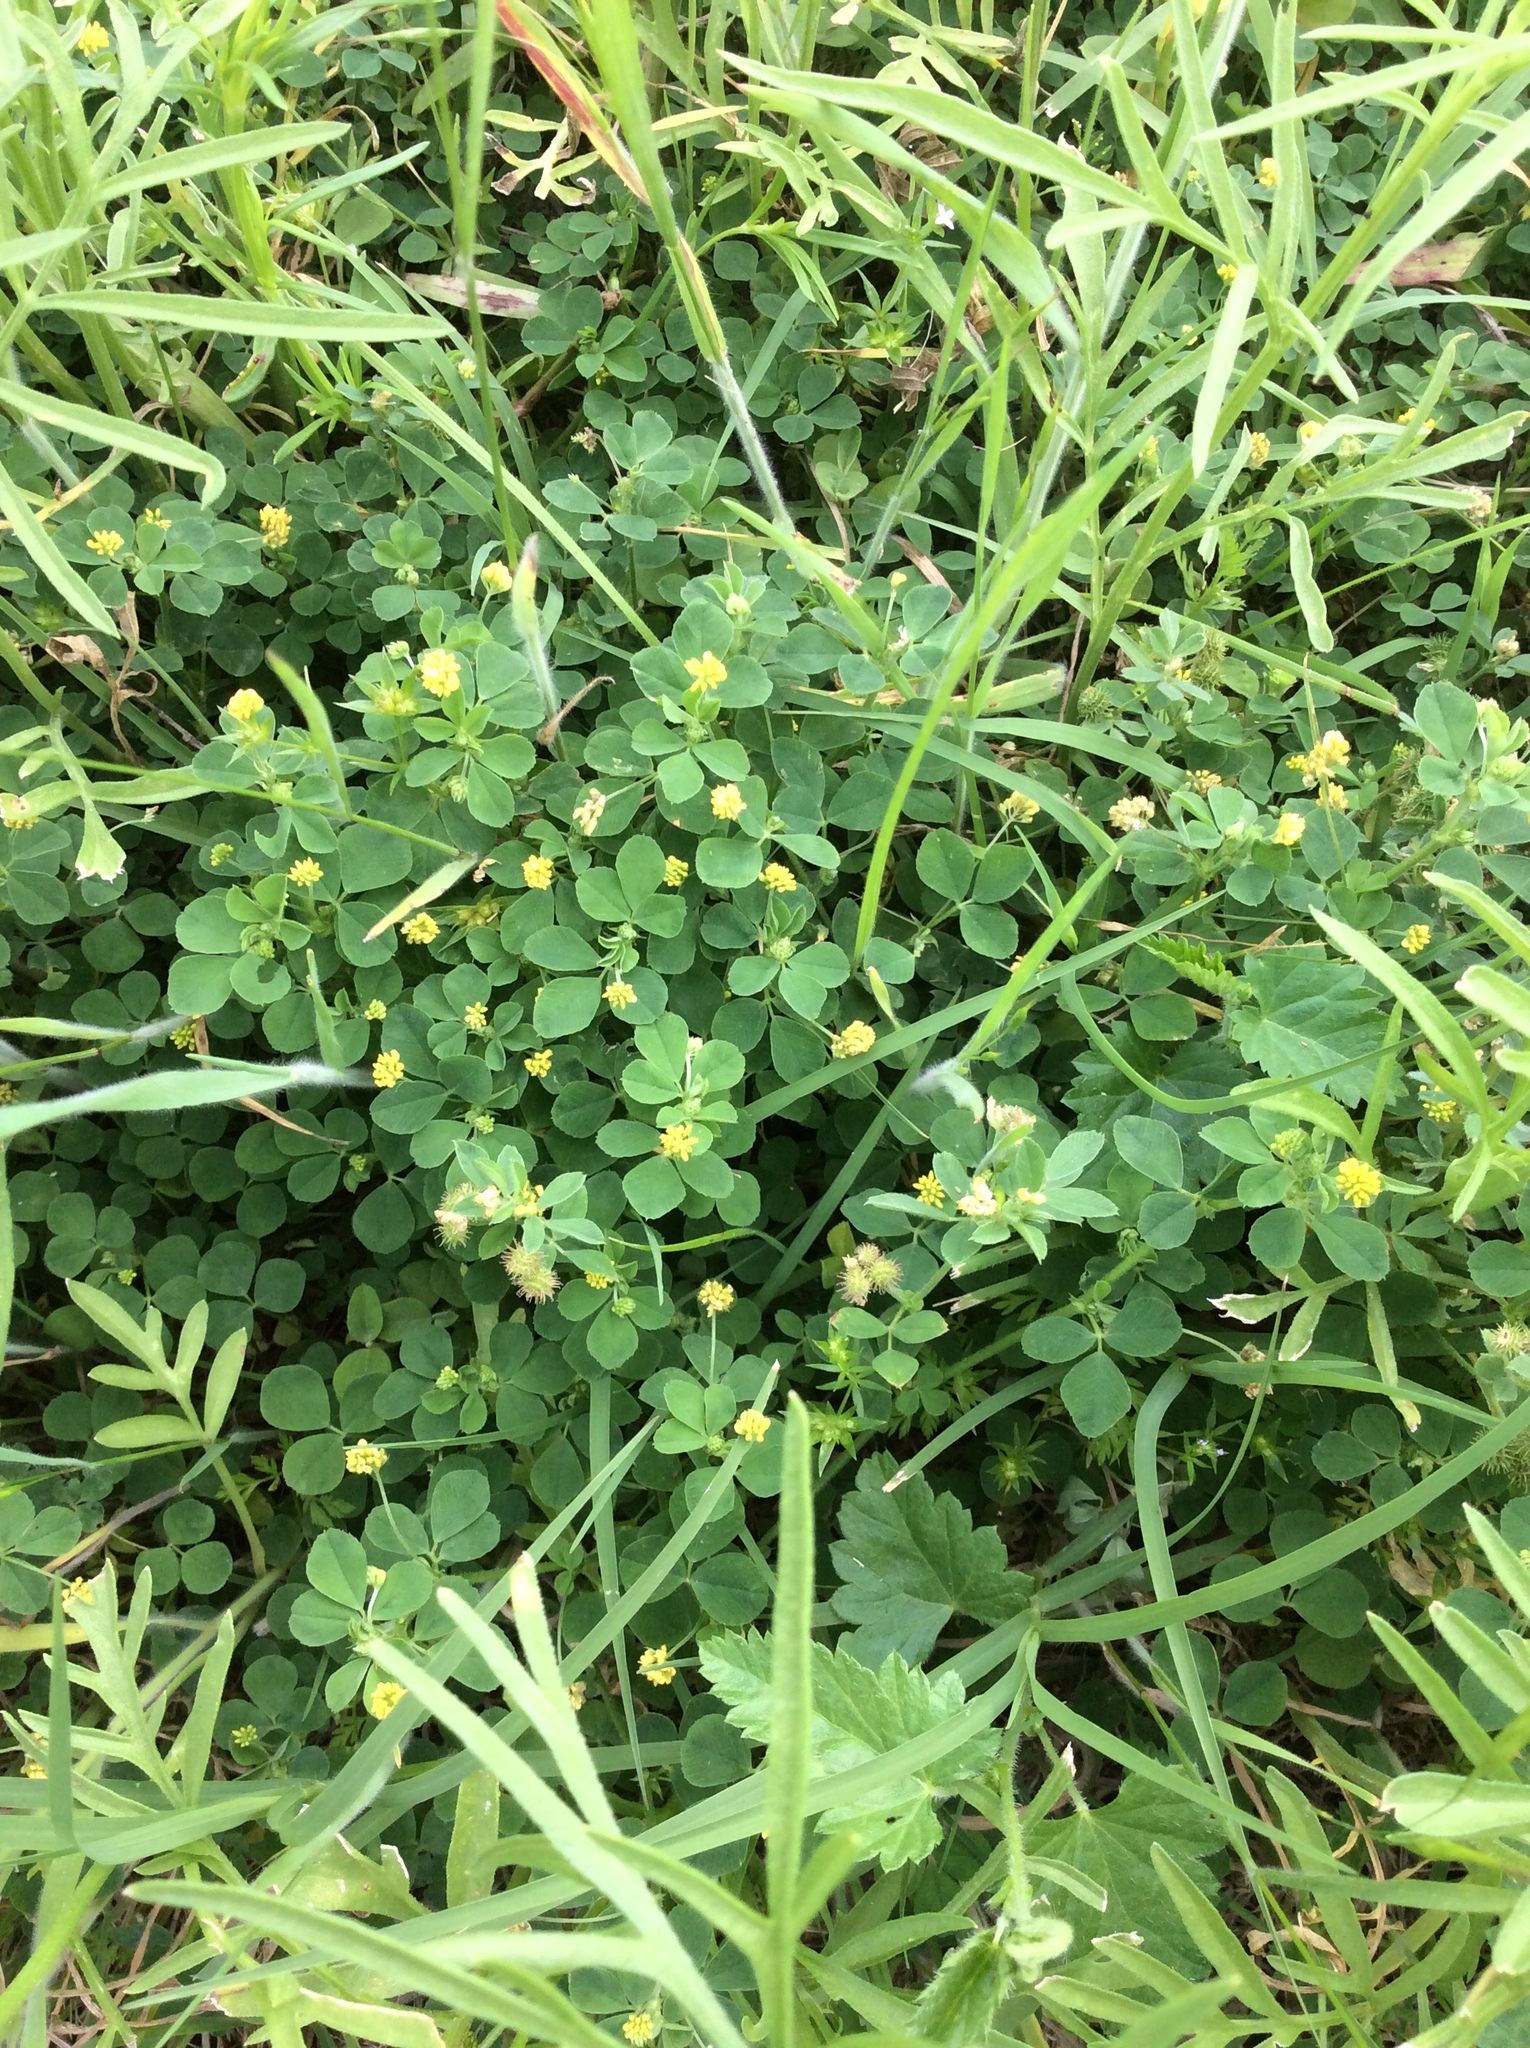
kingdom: Plantae
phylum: Tracheophyta
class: Magnoliopsida
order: Fabales
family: Fabaceae
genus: Medicago
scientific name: Medicago lupulina
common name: Black medick
